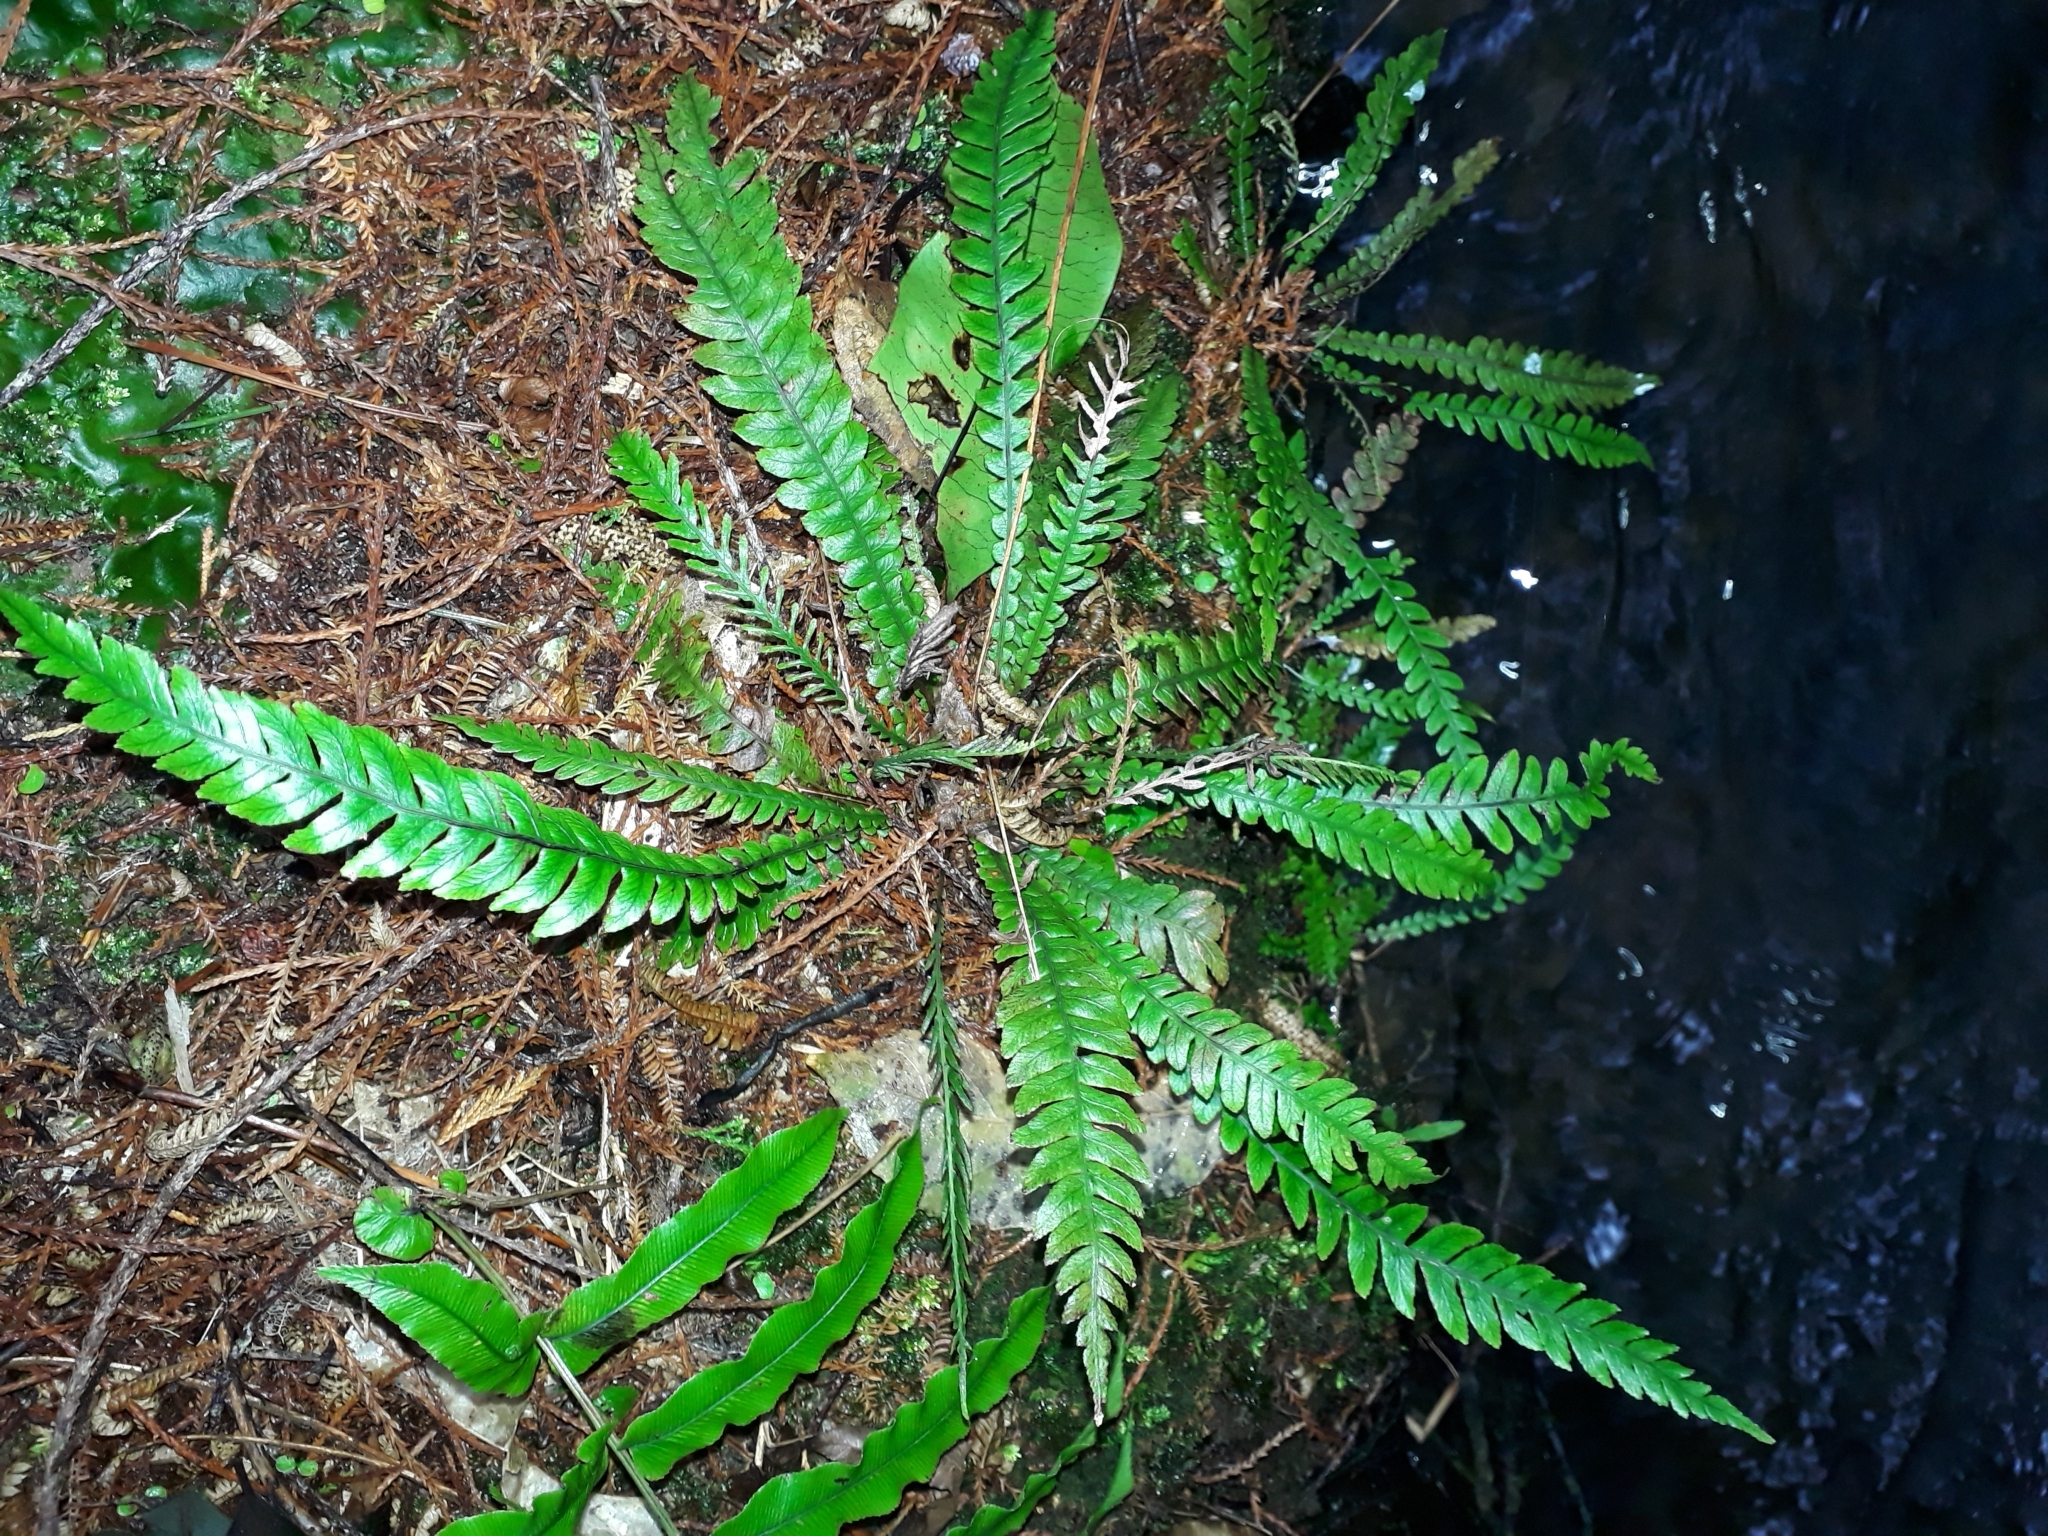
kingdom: Plantae
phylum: Tracheophyta
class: Polypodiopsida
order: Polypodiales
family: Blechnaceae
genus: Austroblechnum
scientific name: Austroblechnum membranaceum
